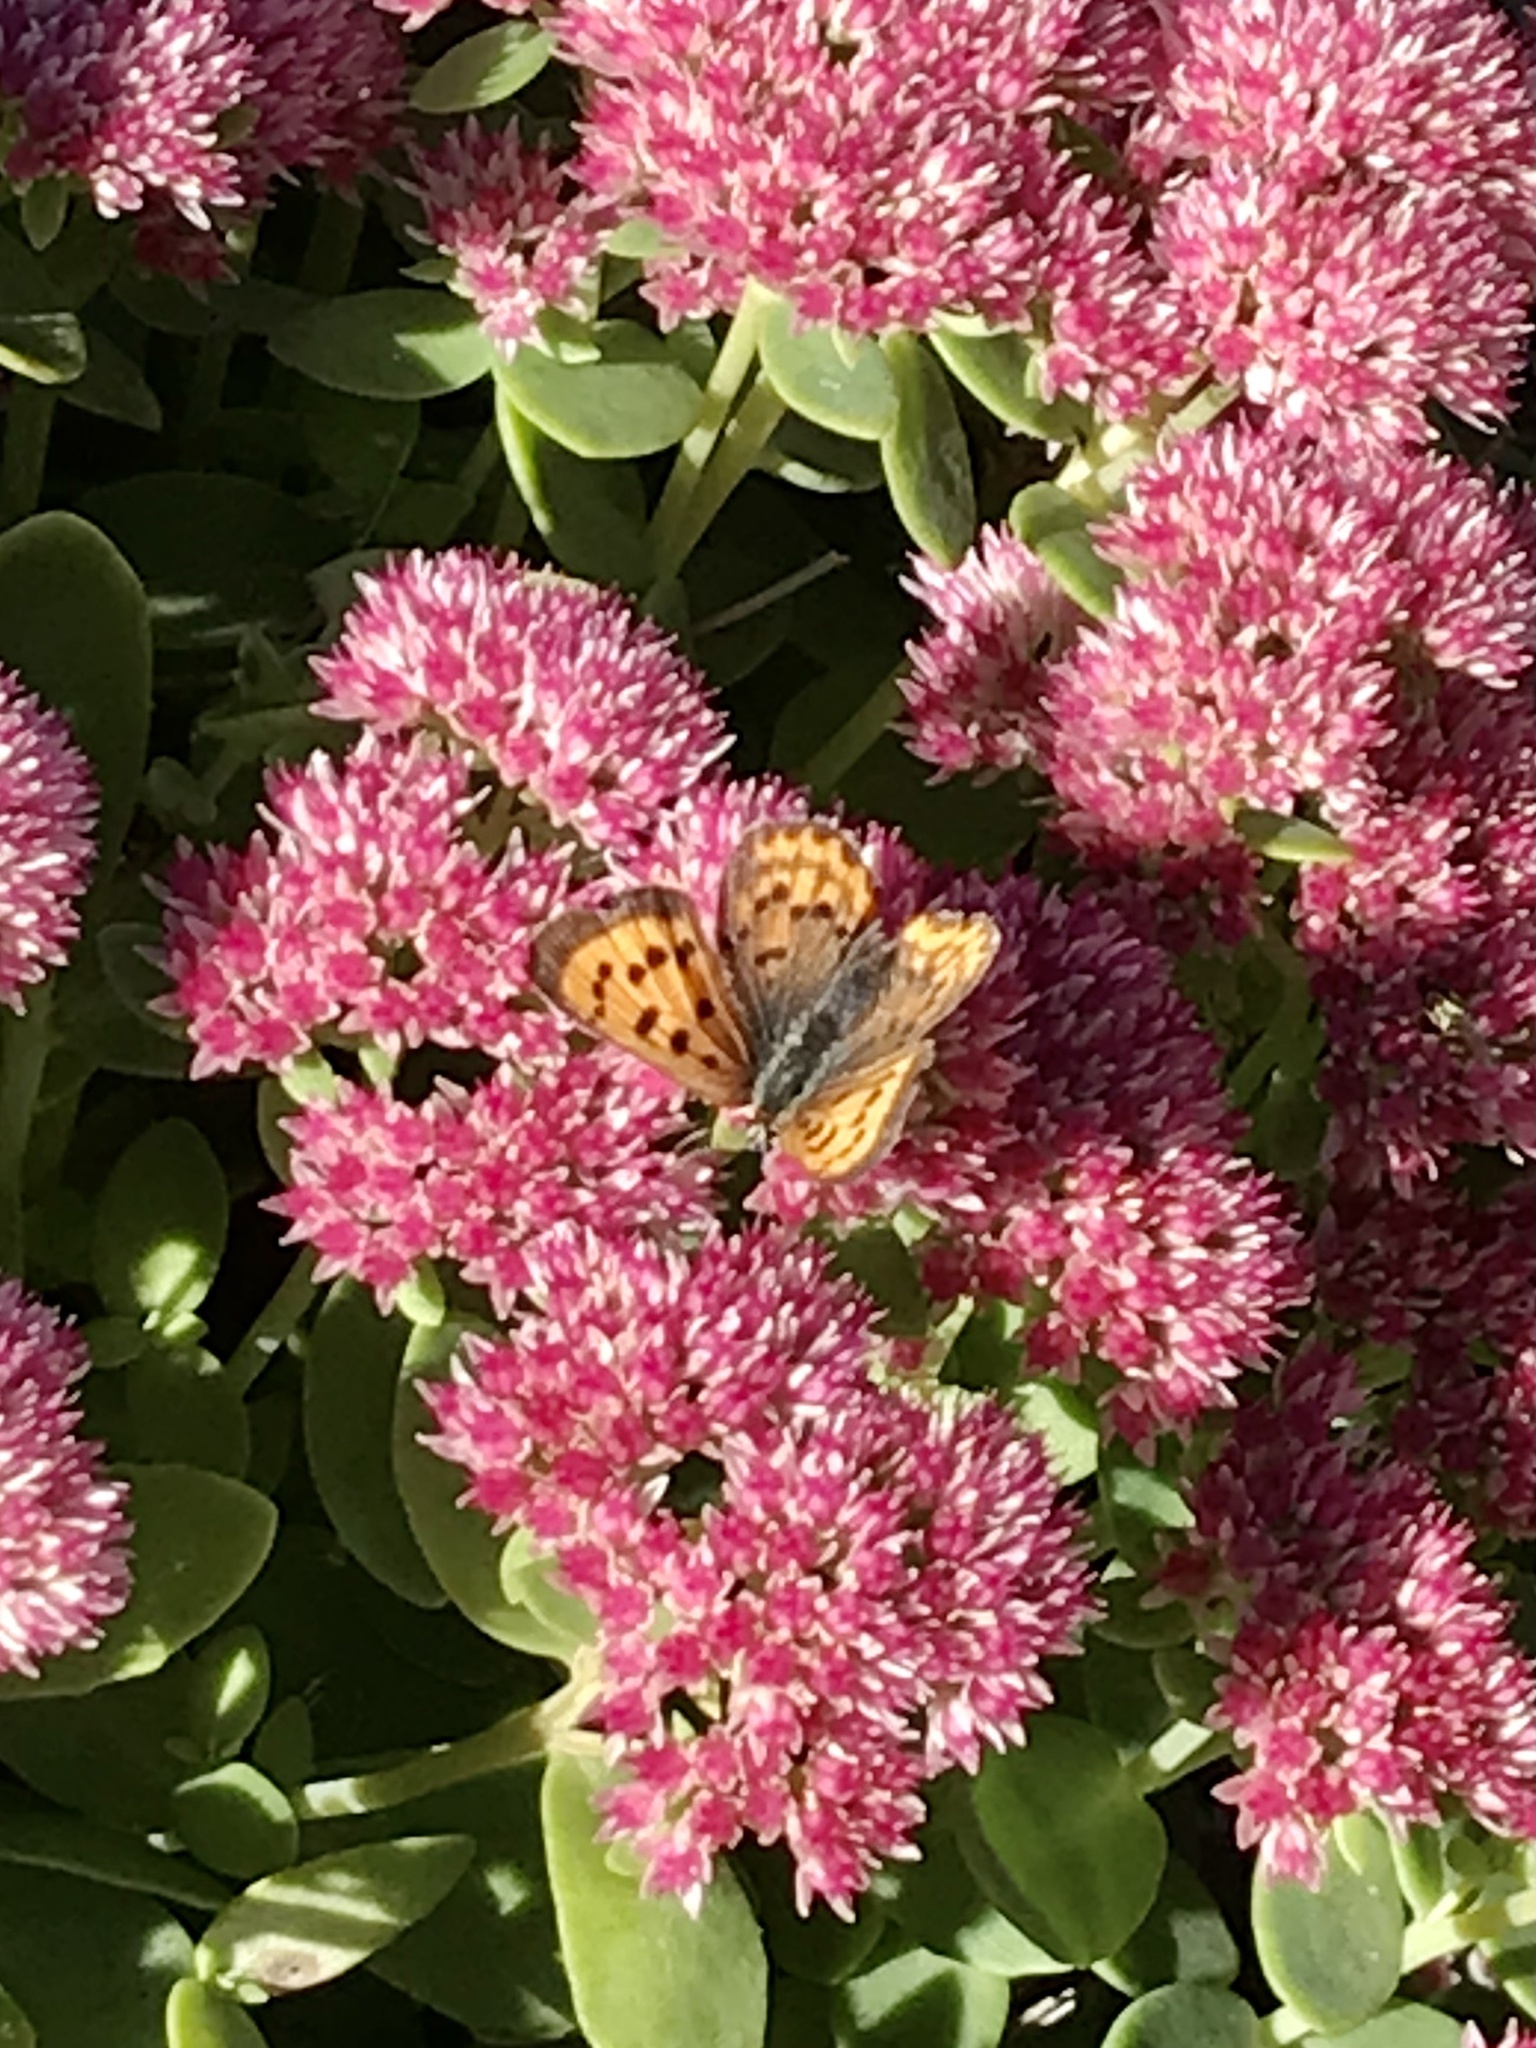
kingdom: Animalia
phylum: Arthropoda
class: Insecta
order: Lepidoptera
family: Lycaenidae
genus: Tharsalea
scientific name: Tharsalea helloides
